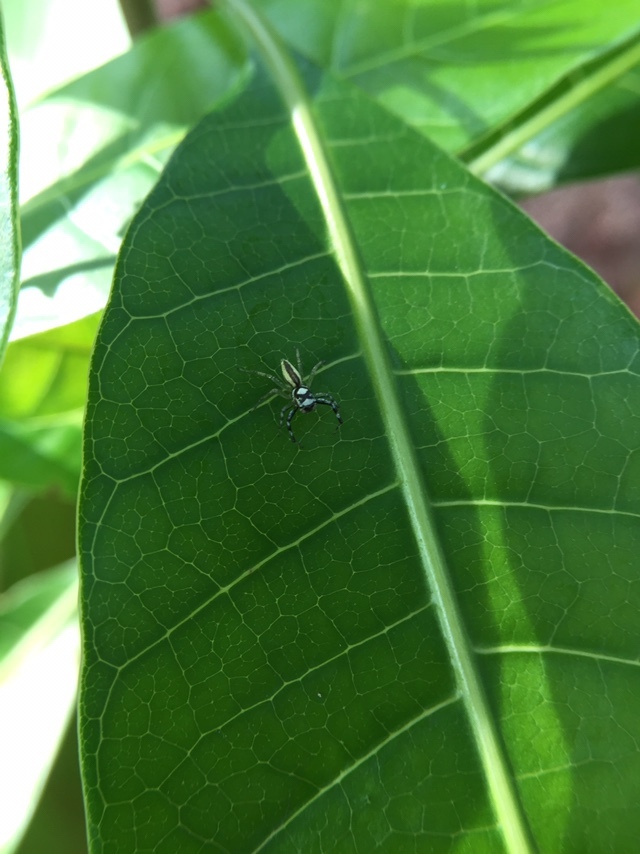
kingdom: Animalia
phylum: Arthropoda
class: Arachnida
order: Araneae
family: Salticidae
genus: Phintelloides
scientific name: Phintelloides versicolor
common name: Jumping spider
